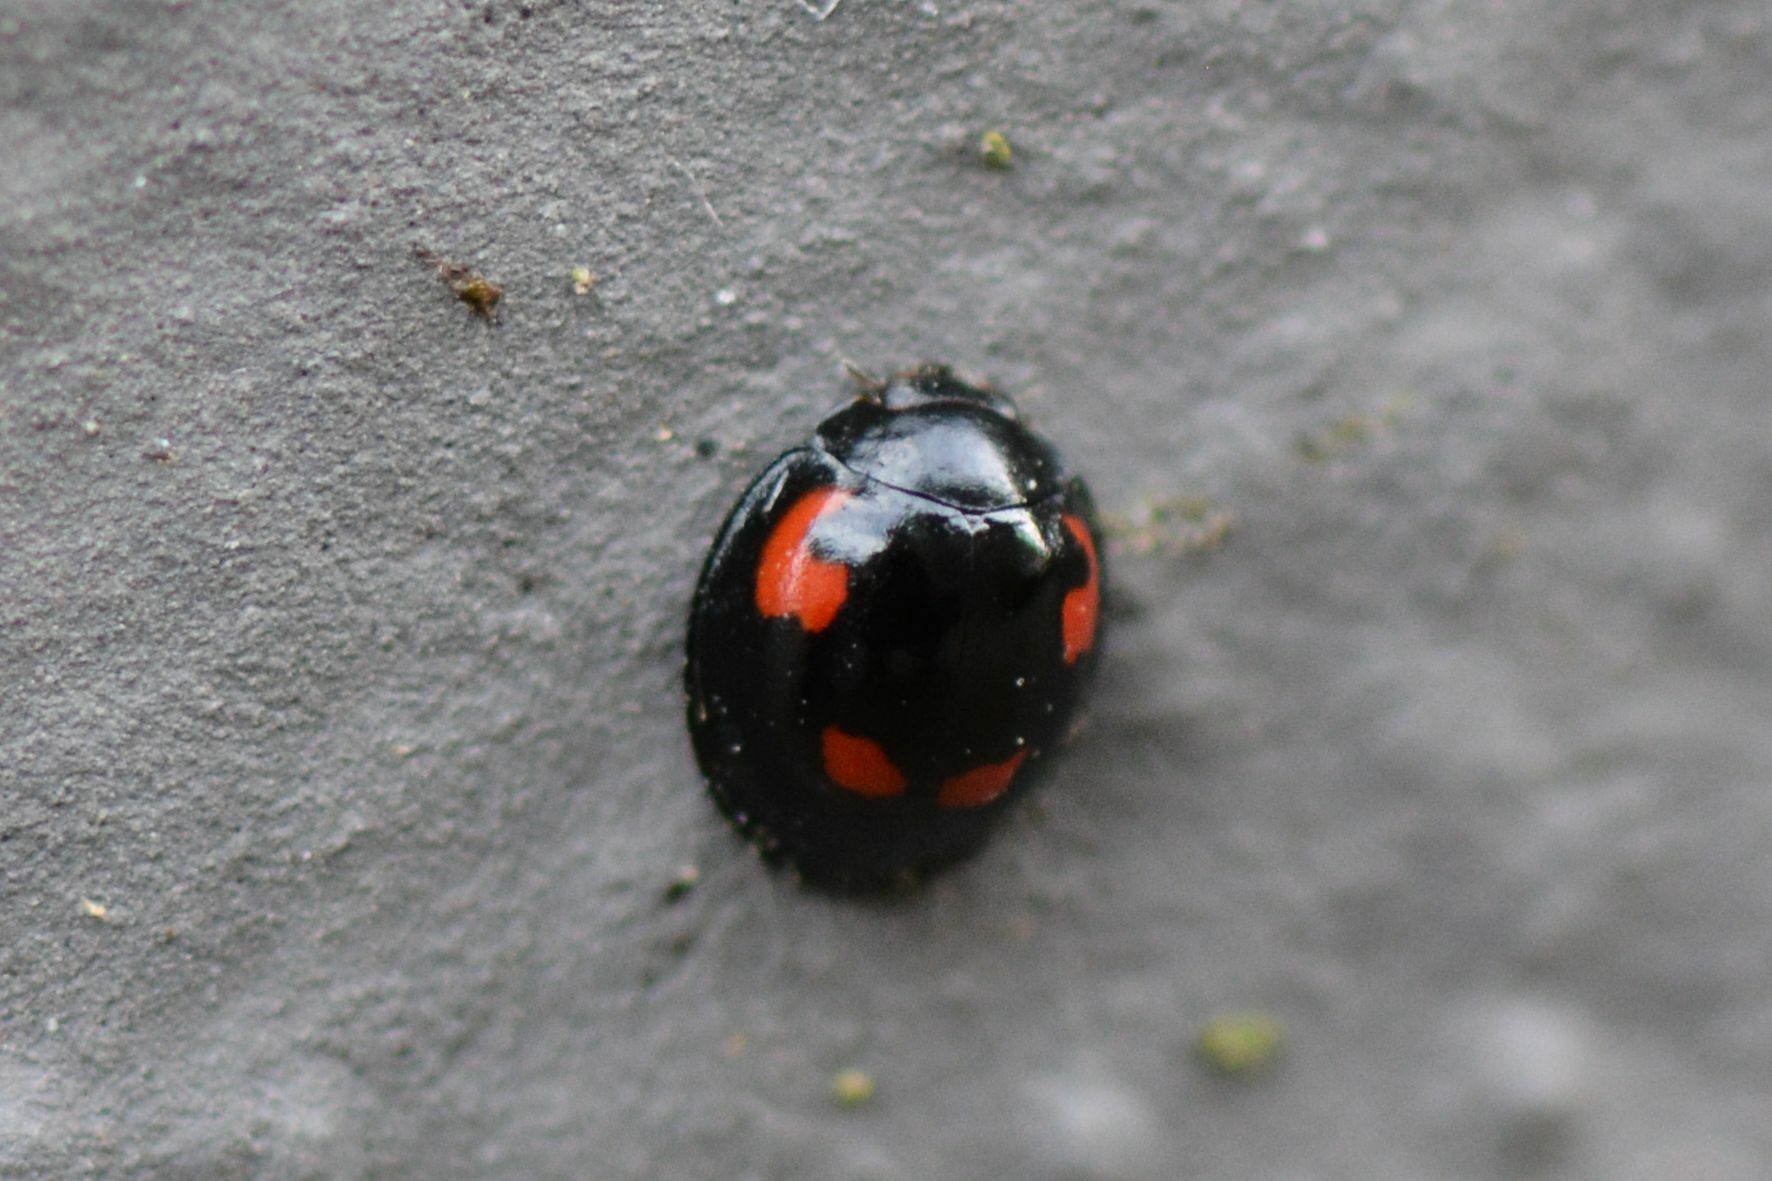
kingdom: Animalia
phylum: Arthropoda
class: Insecta
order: Coleoptera
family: Coccinellidae
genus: Brumus
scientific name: Brumus quadripustulatus
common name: Ladybird beetle
